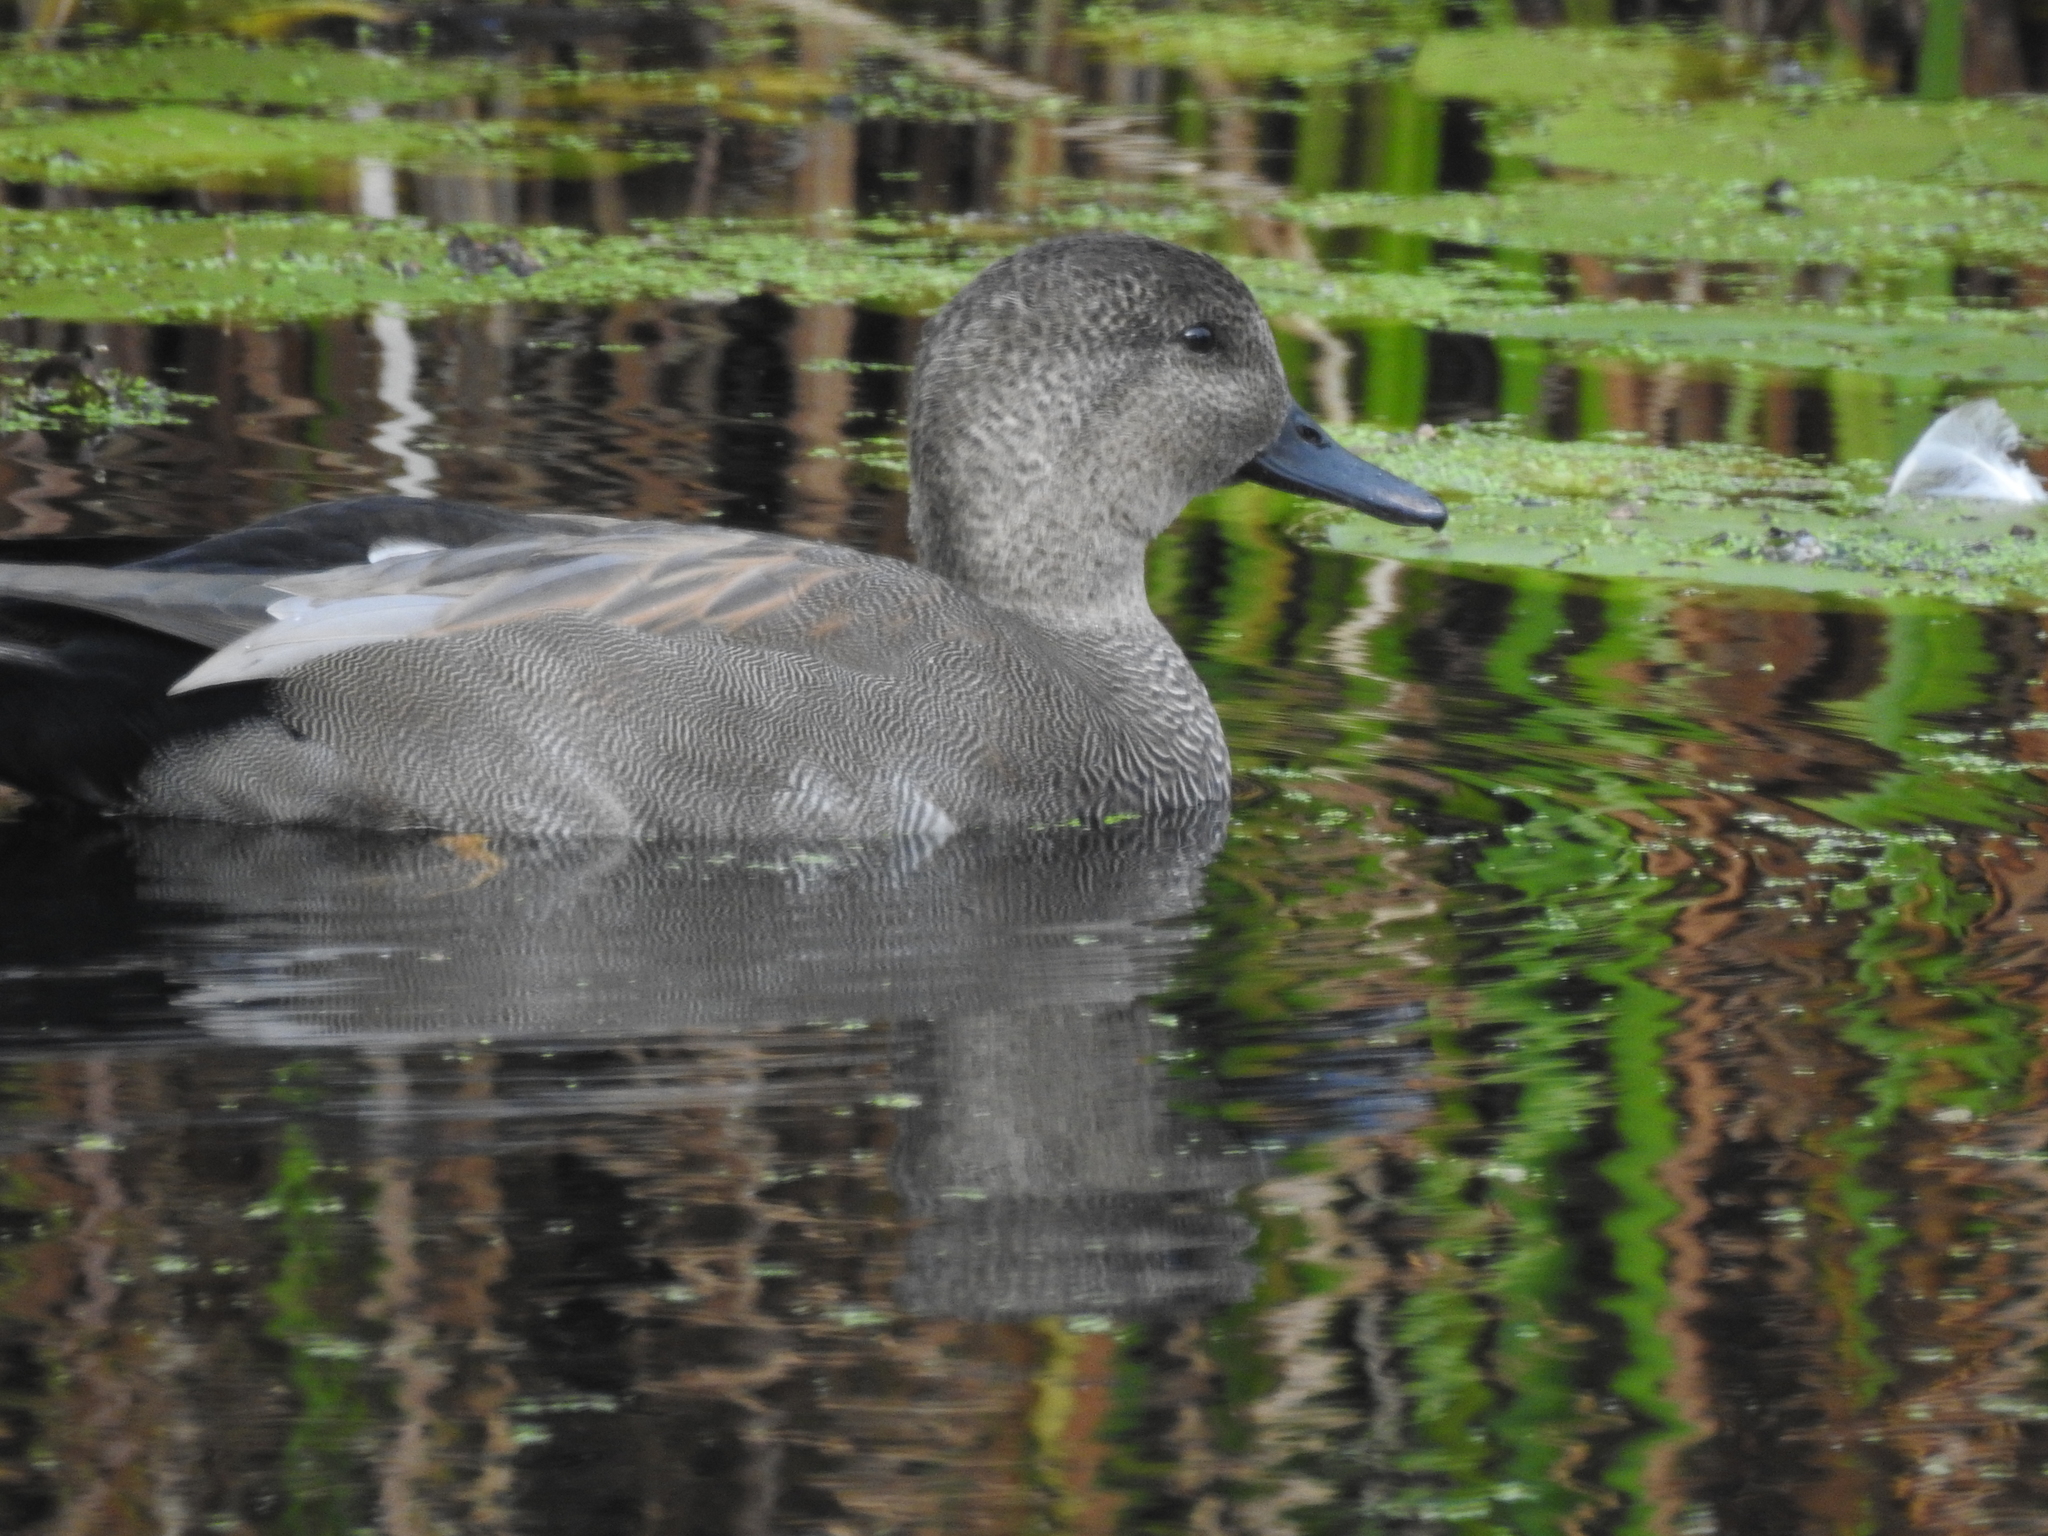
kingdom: Animalia
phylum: Chordata
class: Aves
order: Anseriformes
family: Anatidae
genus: Mareca
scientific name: Mareca strepera
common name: Gadwall
